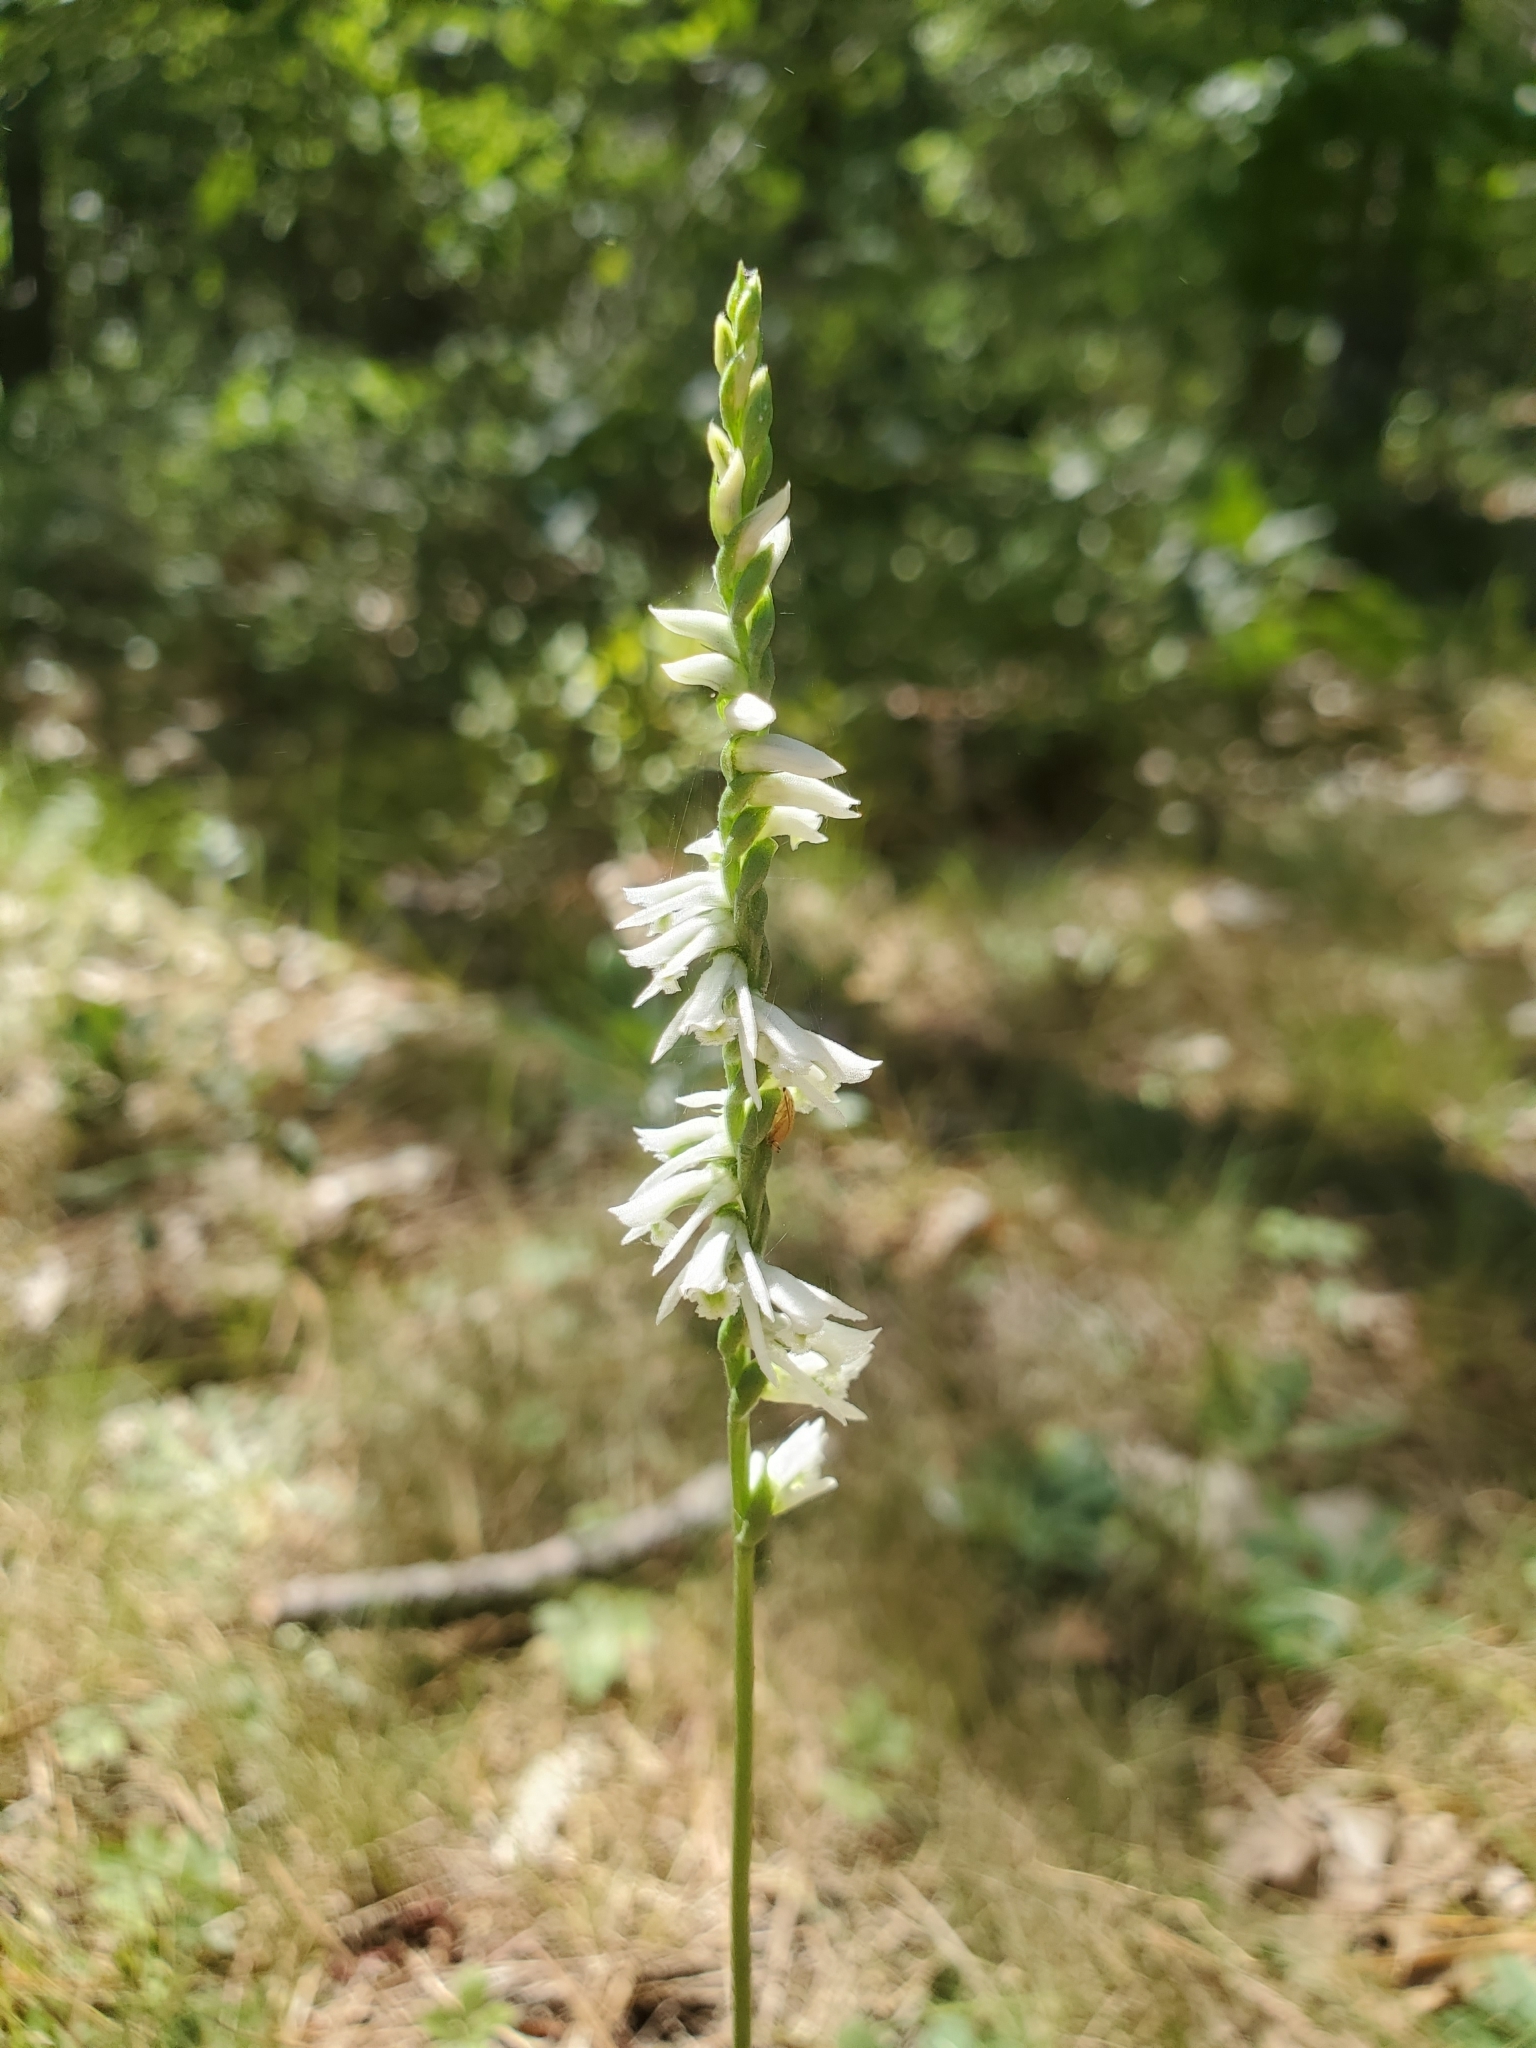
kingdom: Plantae
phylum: Tracheophyta
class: Liliopsida
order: Asparagales
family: Orchidaceae
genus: Spiranthes
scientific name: Spiranthes lacera
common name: Northern slender ladies'-tresses
